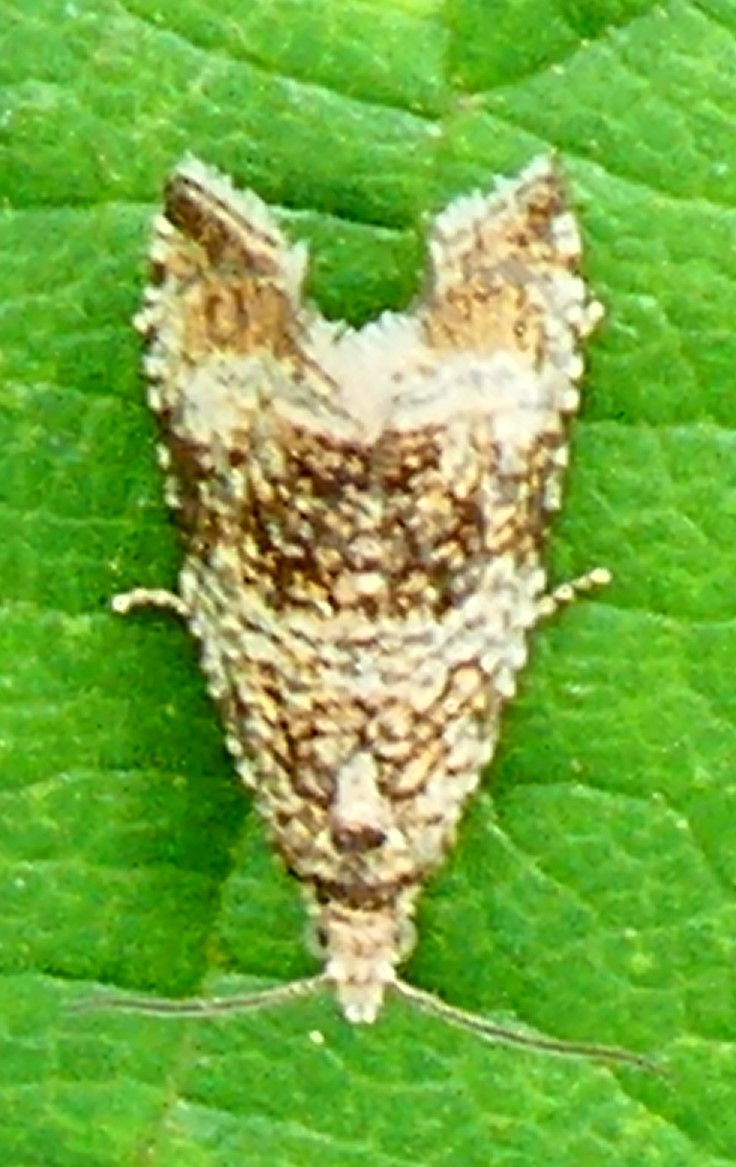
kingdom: Animalia
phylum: Arthropoda
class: Insecta
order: Lepidoptera
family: Tortricidae
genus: Syricoris
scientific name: Syricoris lacunana
